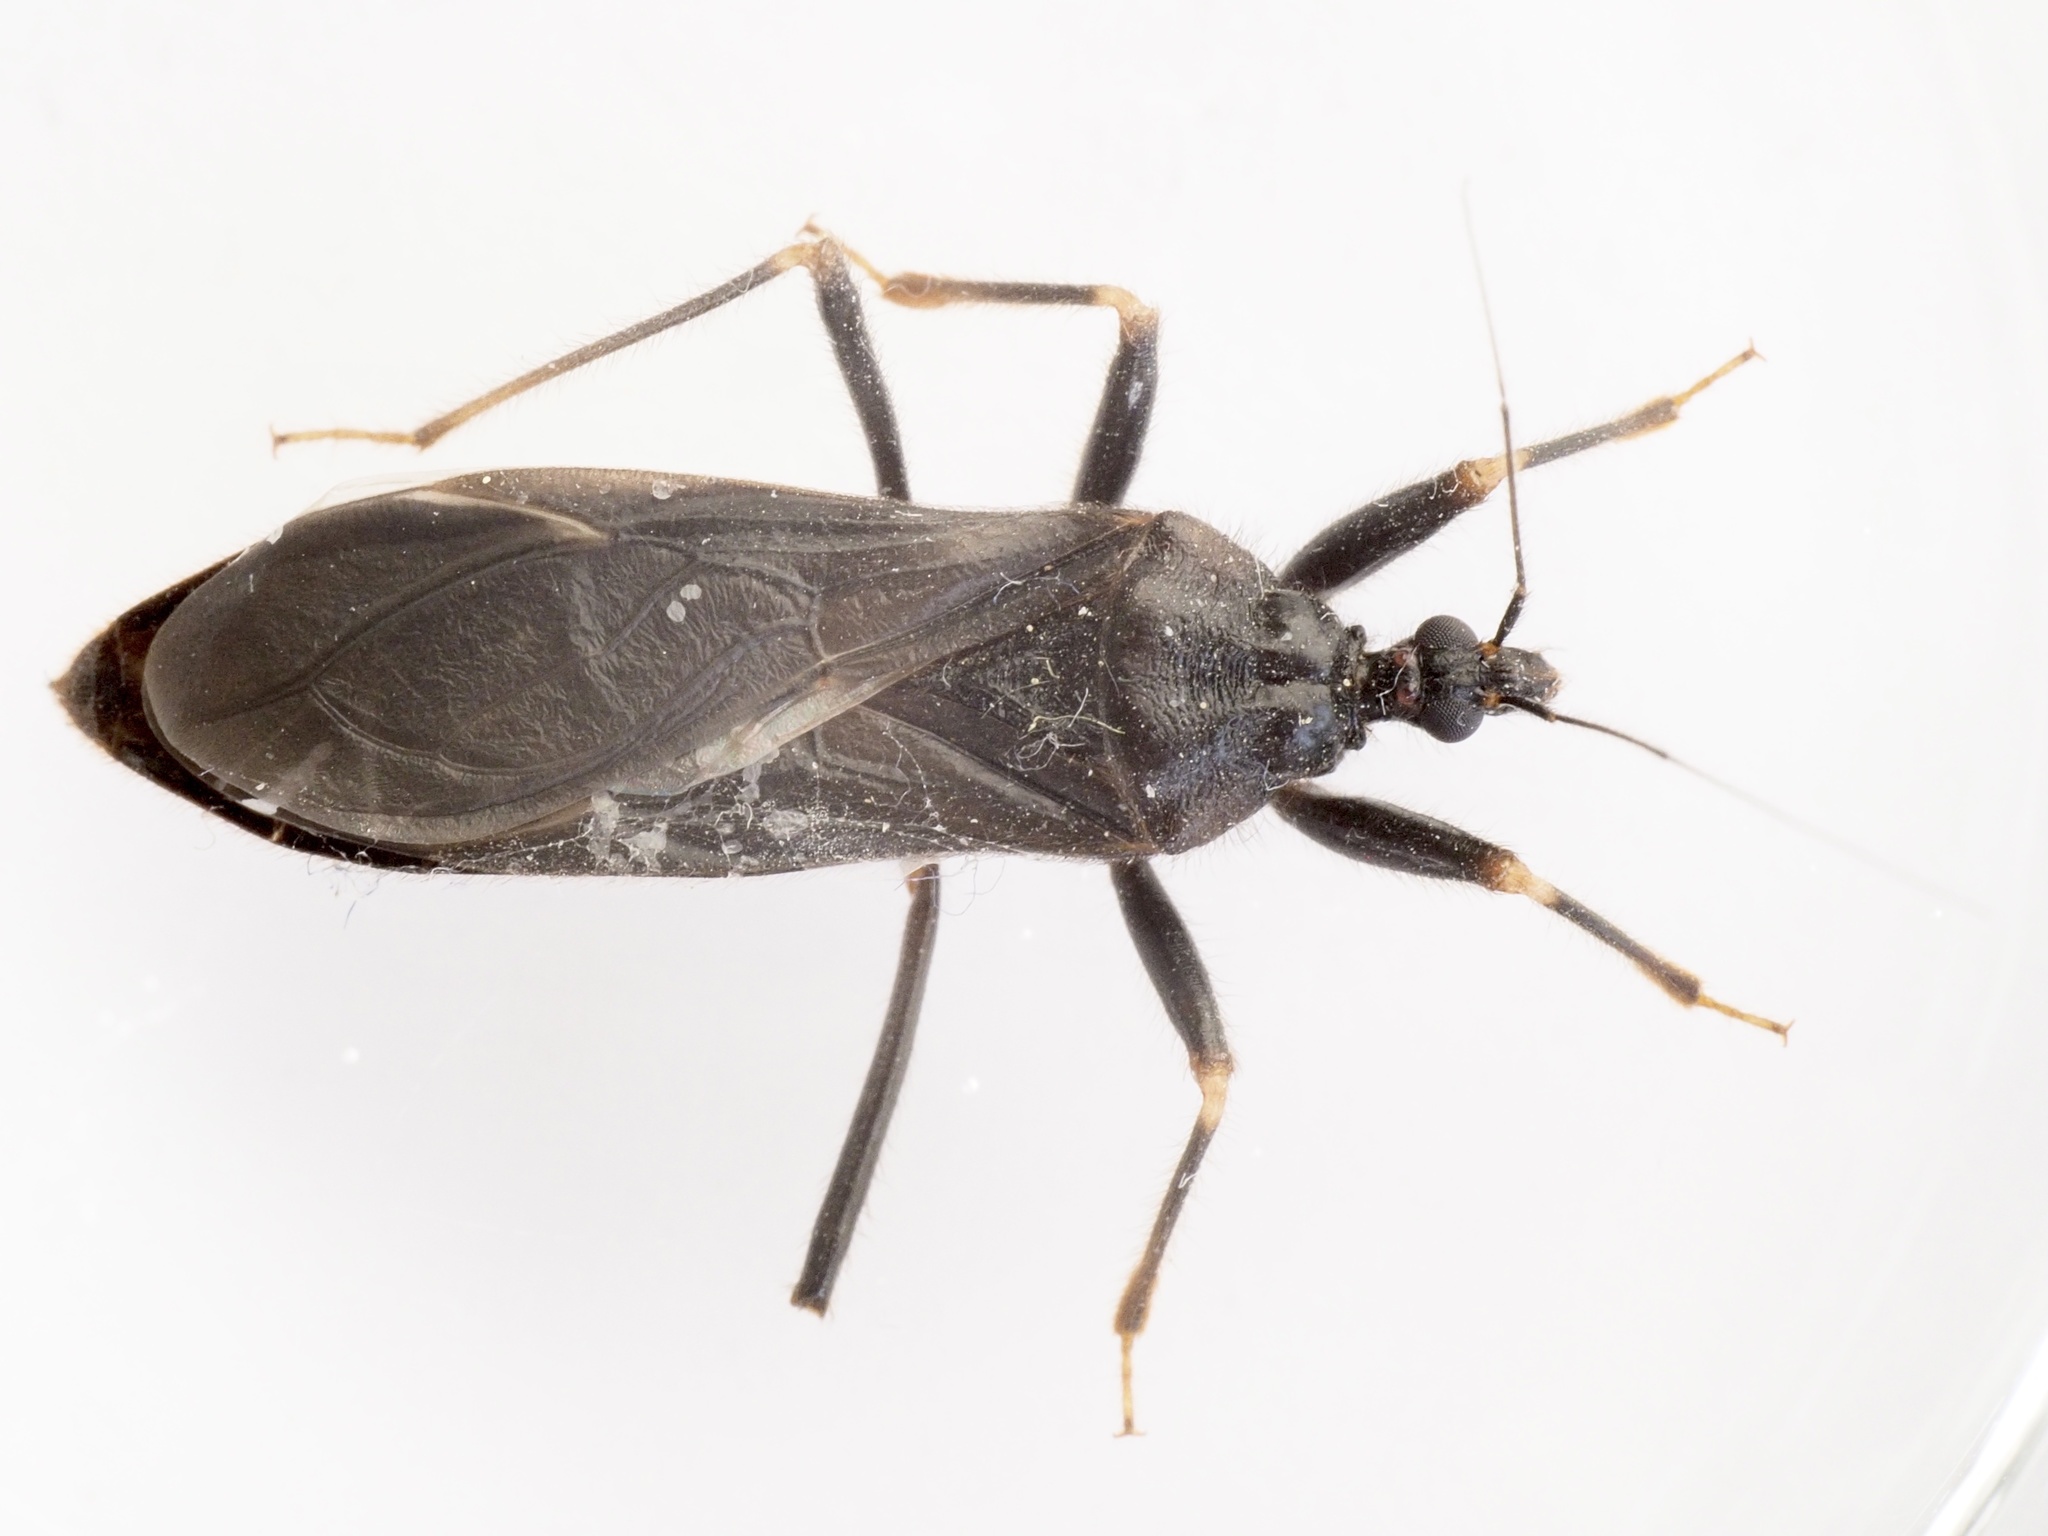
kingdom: Animalia
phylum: Arthropoda
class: Insecta
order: Hemiptera
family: Reduviidae
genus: Reduvius
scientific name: Reduvius personatus
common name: Masked hunter
